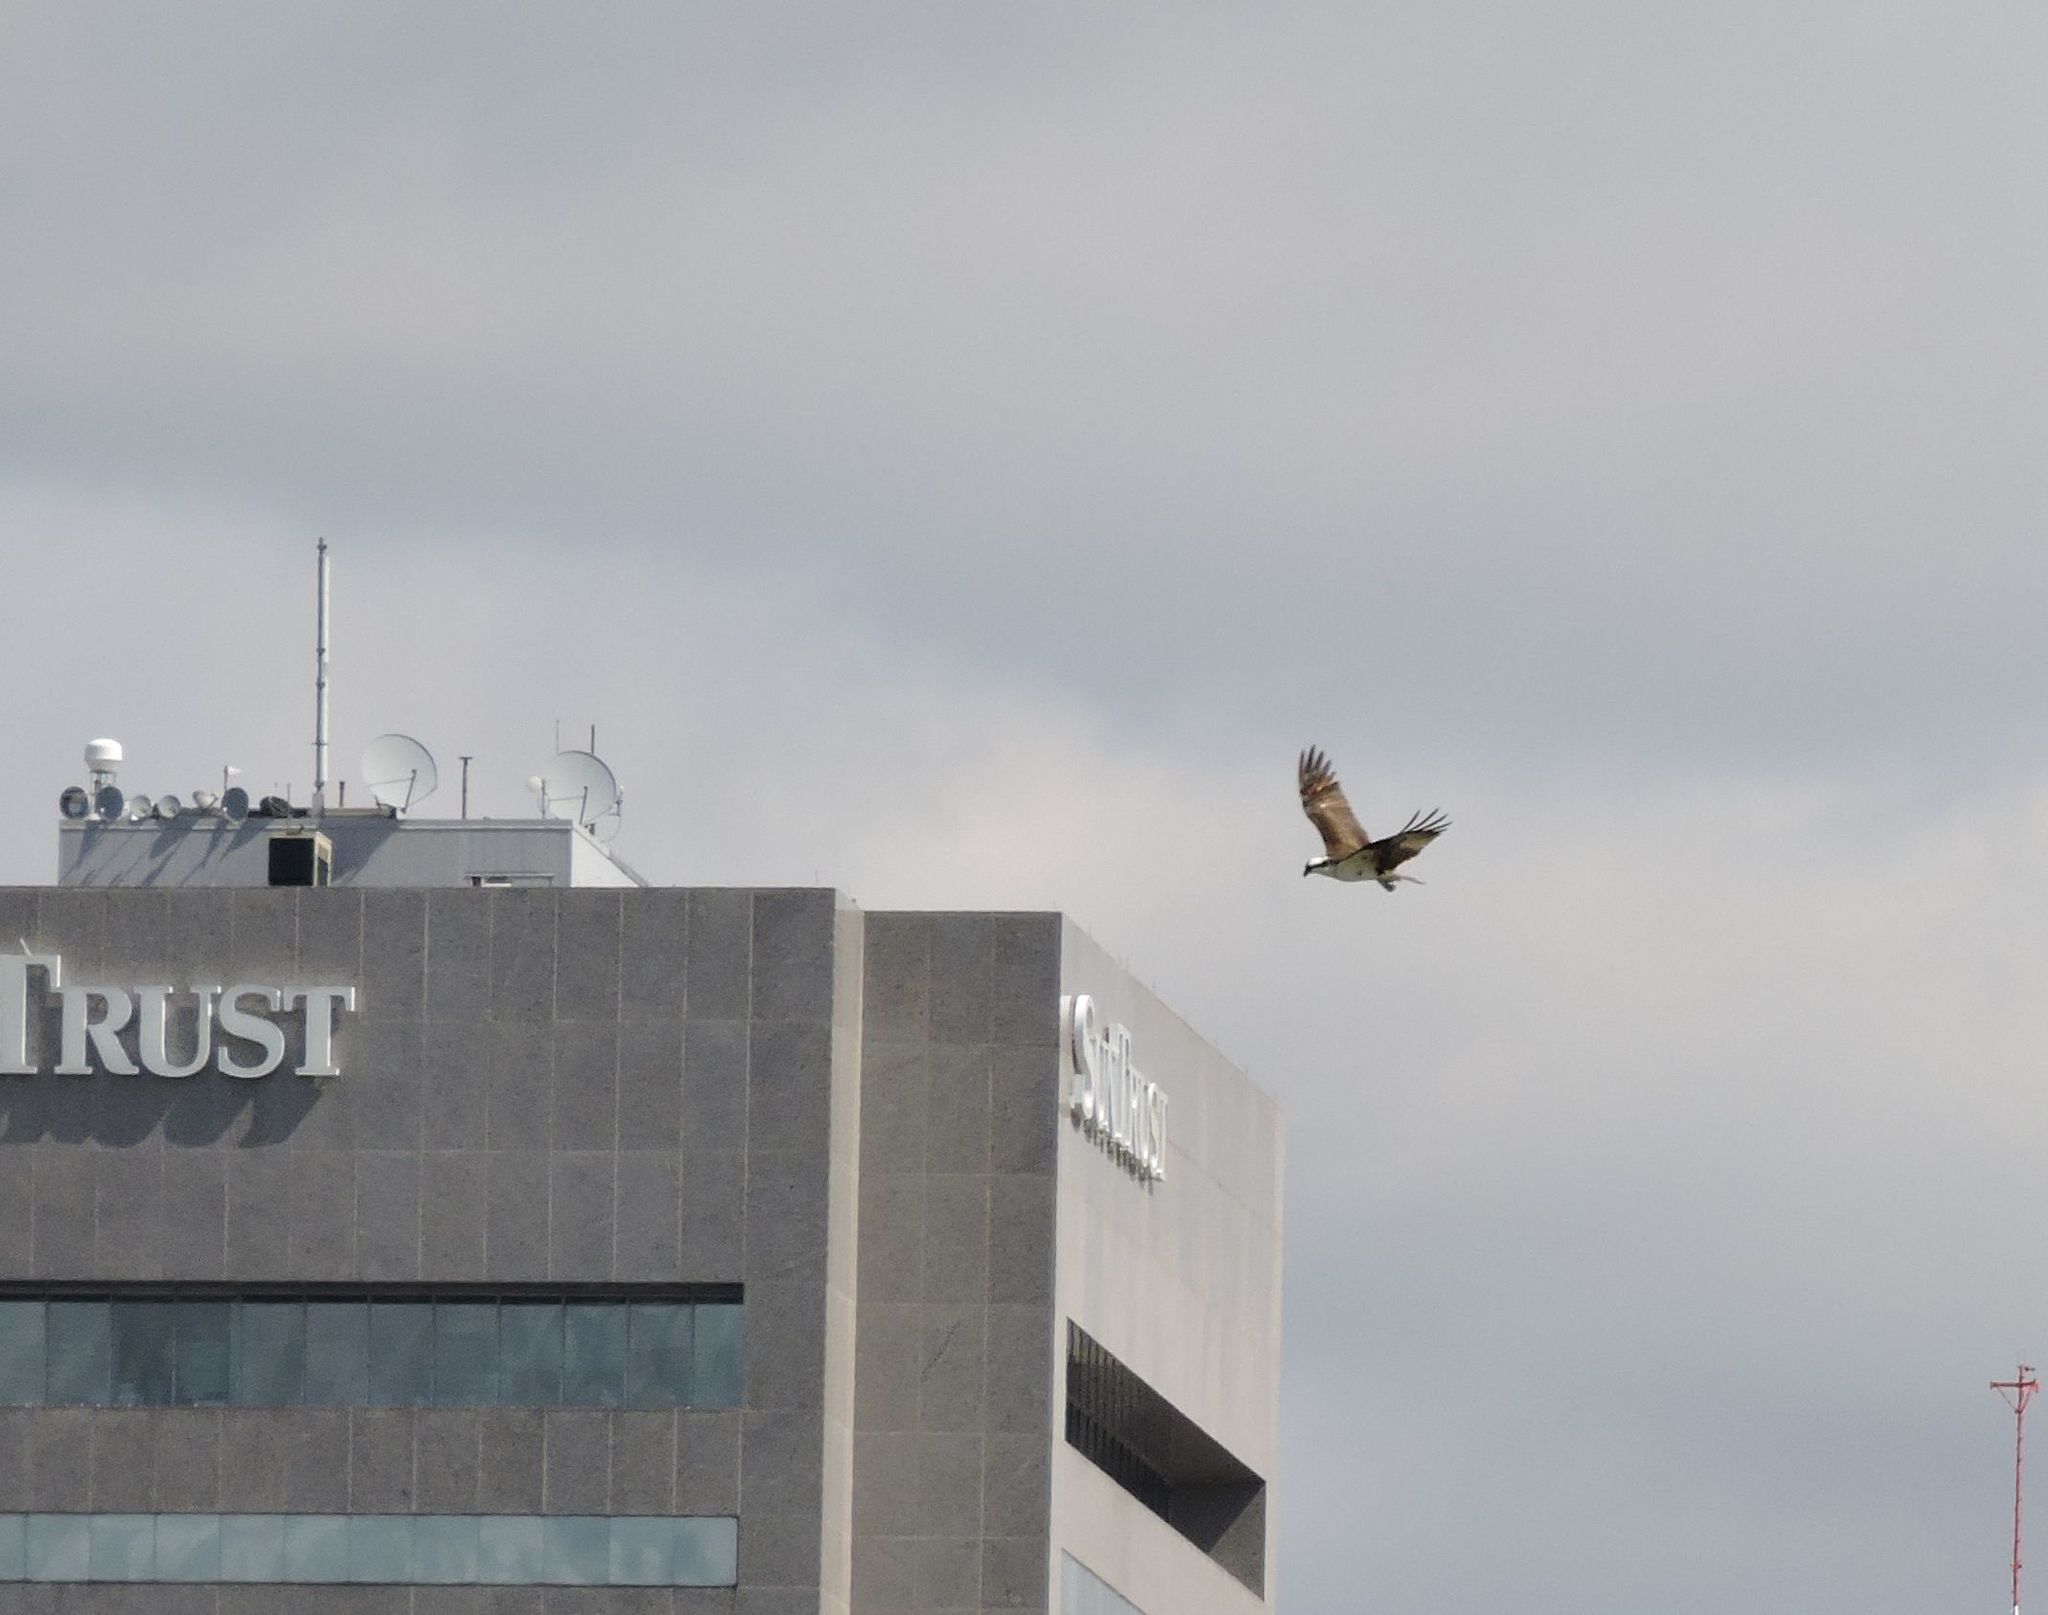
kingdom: Animalia
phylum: Chordata
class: Aves
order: Accipitriformes
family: Pandionidae
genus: Pandion
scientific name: Pandion haliaetus
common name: Osprey
